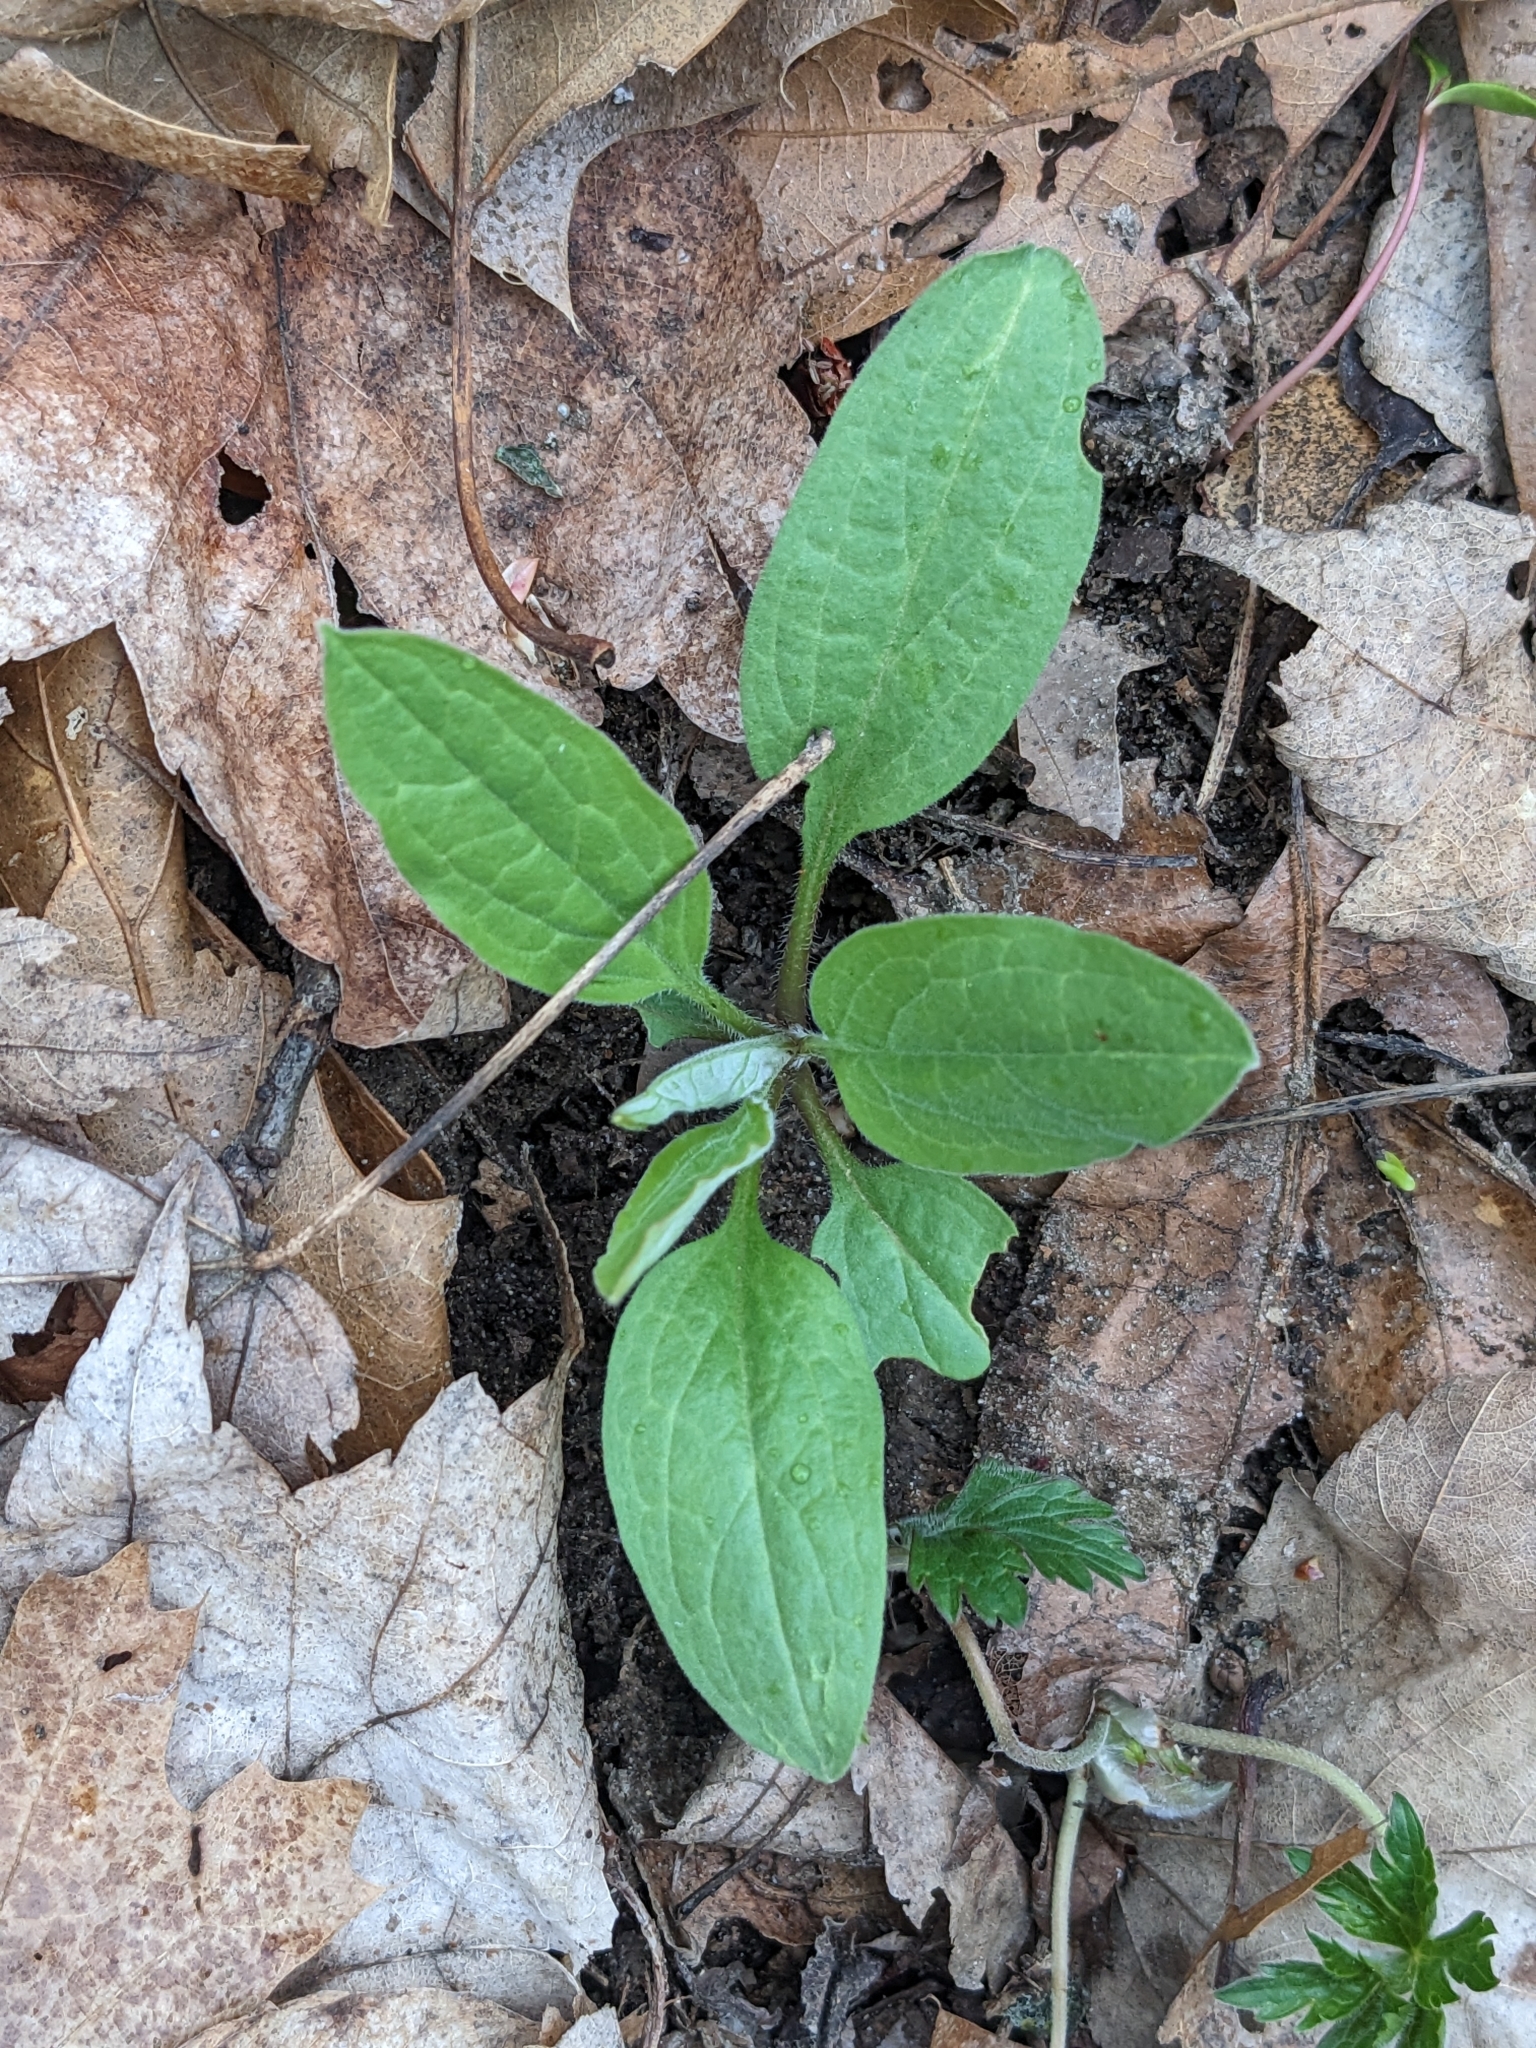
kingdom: Plantae
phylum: Tracheophyta
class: Magnoliopsida
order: Boraginales
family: Boraginaceae
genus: Hackelia
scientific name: Hackelia virginiana
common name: Beggar's-lice
